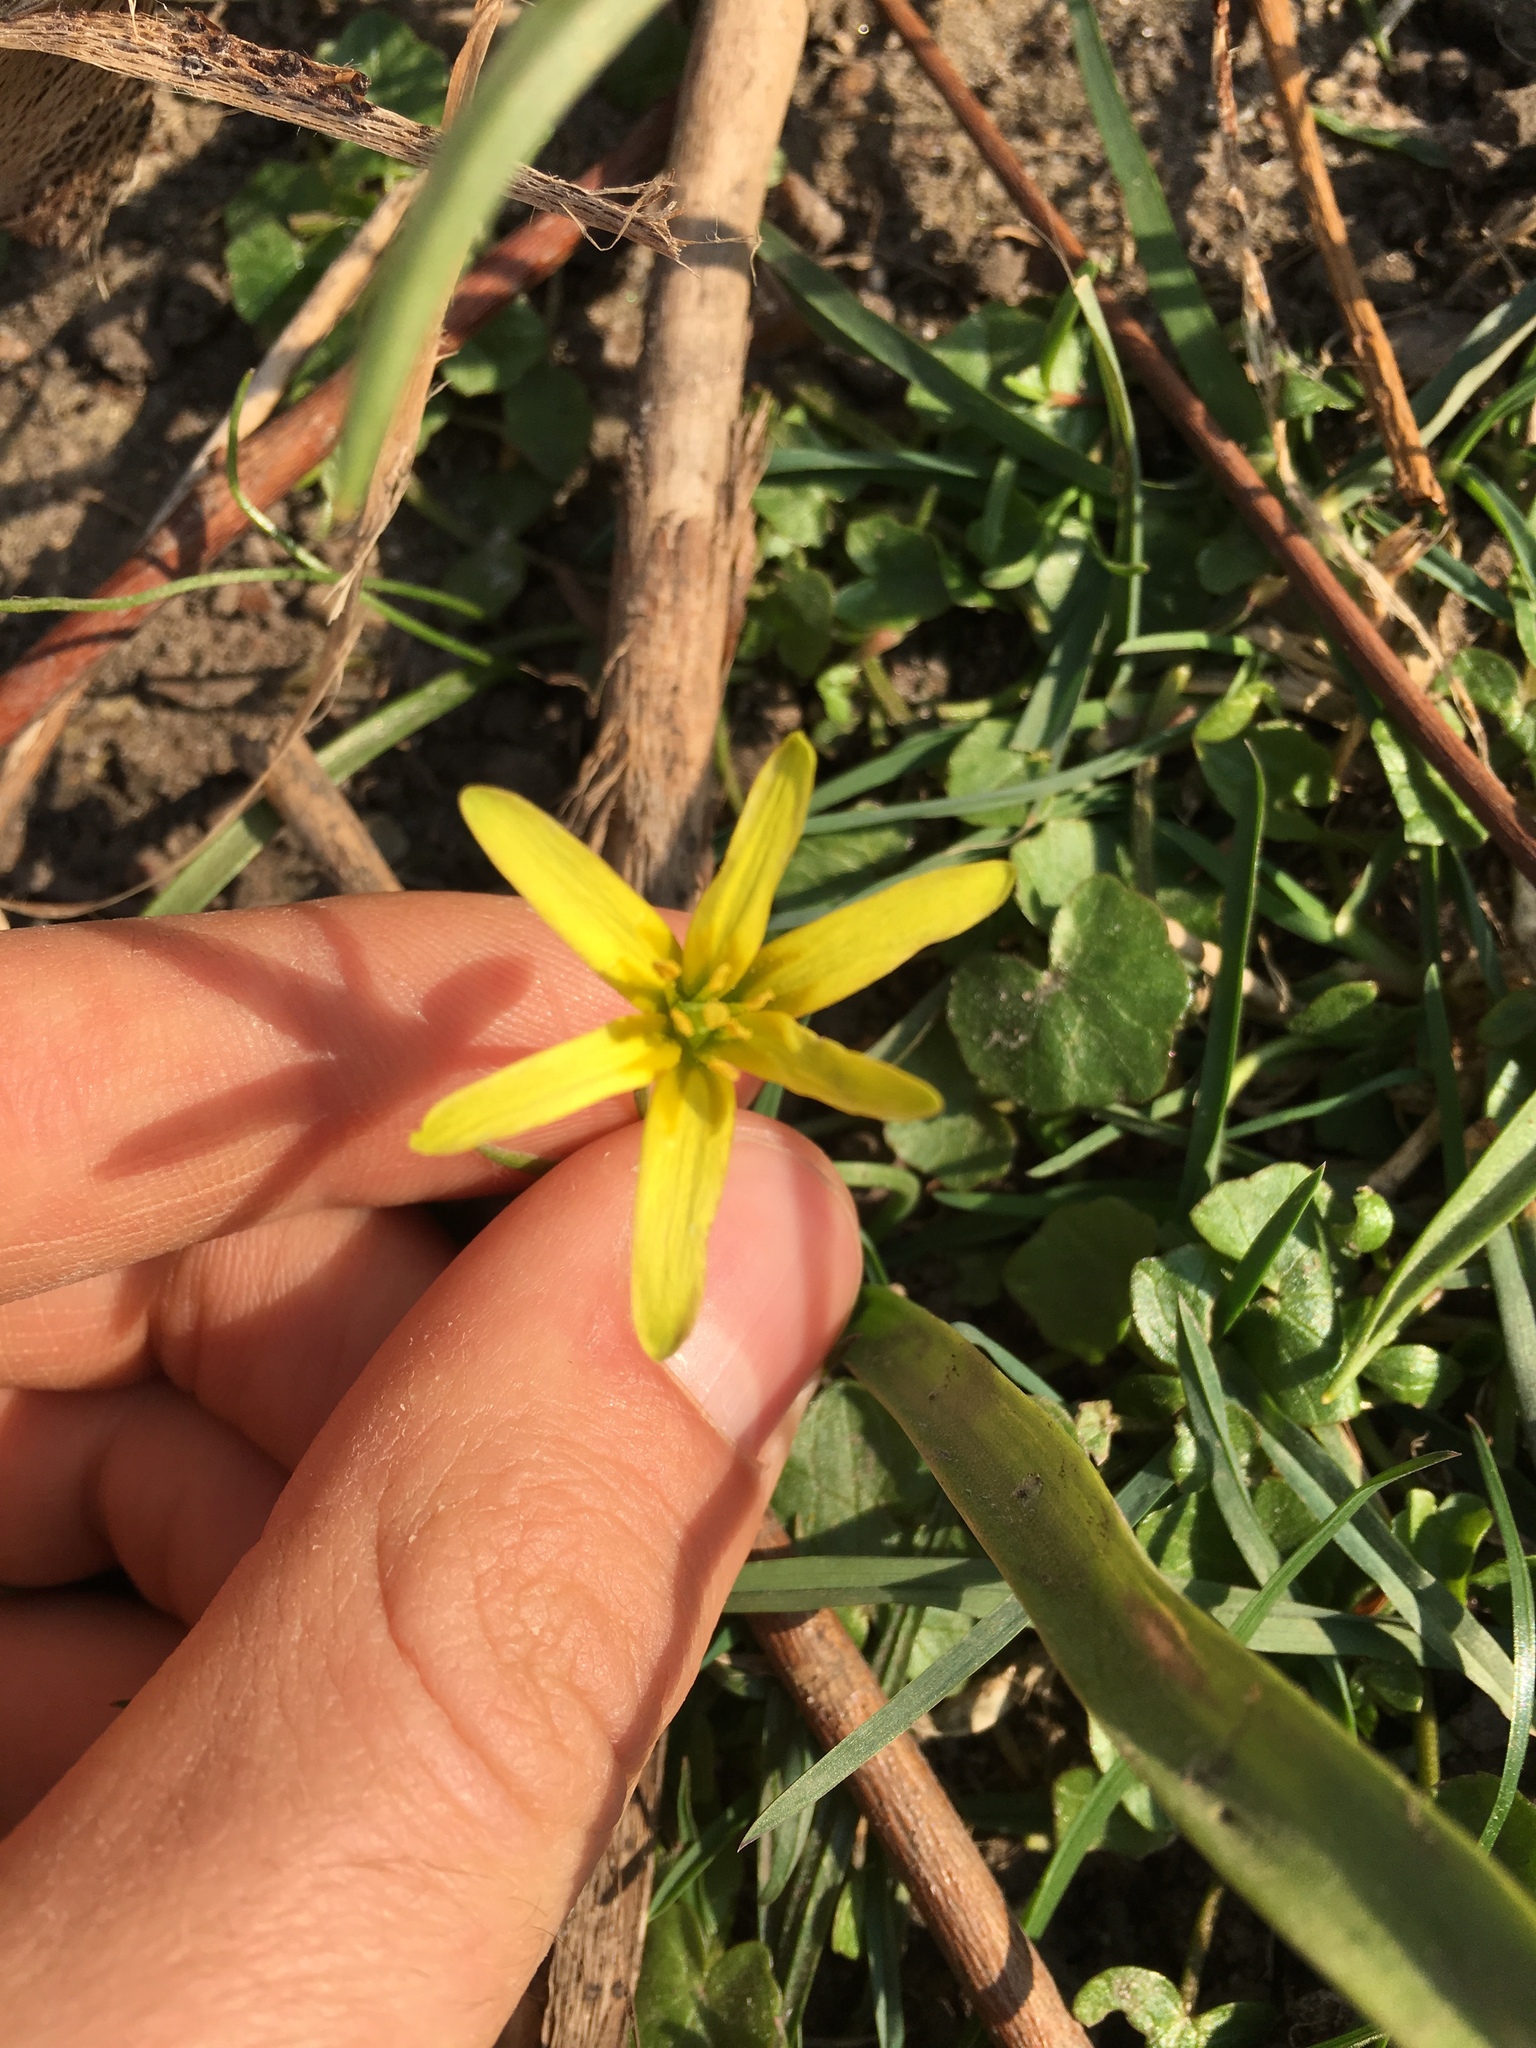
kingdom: Plantae
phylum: Tracheophyta
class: Liliopsida
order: Liliales
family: Liliaceae
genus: Gagea
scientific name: Gagea lutea
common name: Yellow star-of-bethlehem
